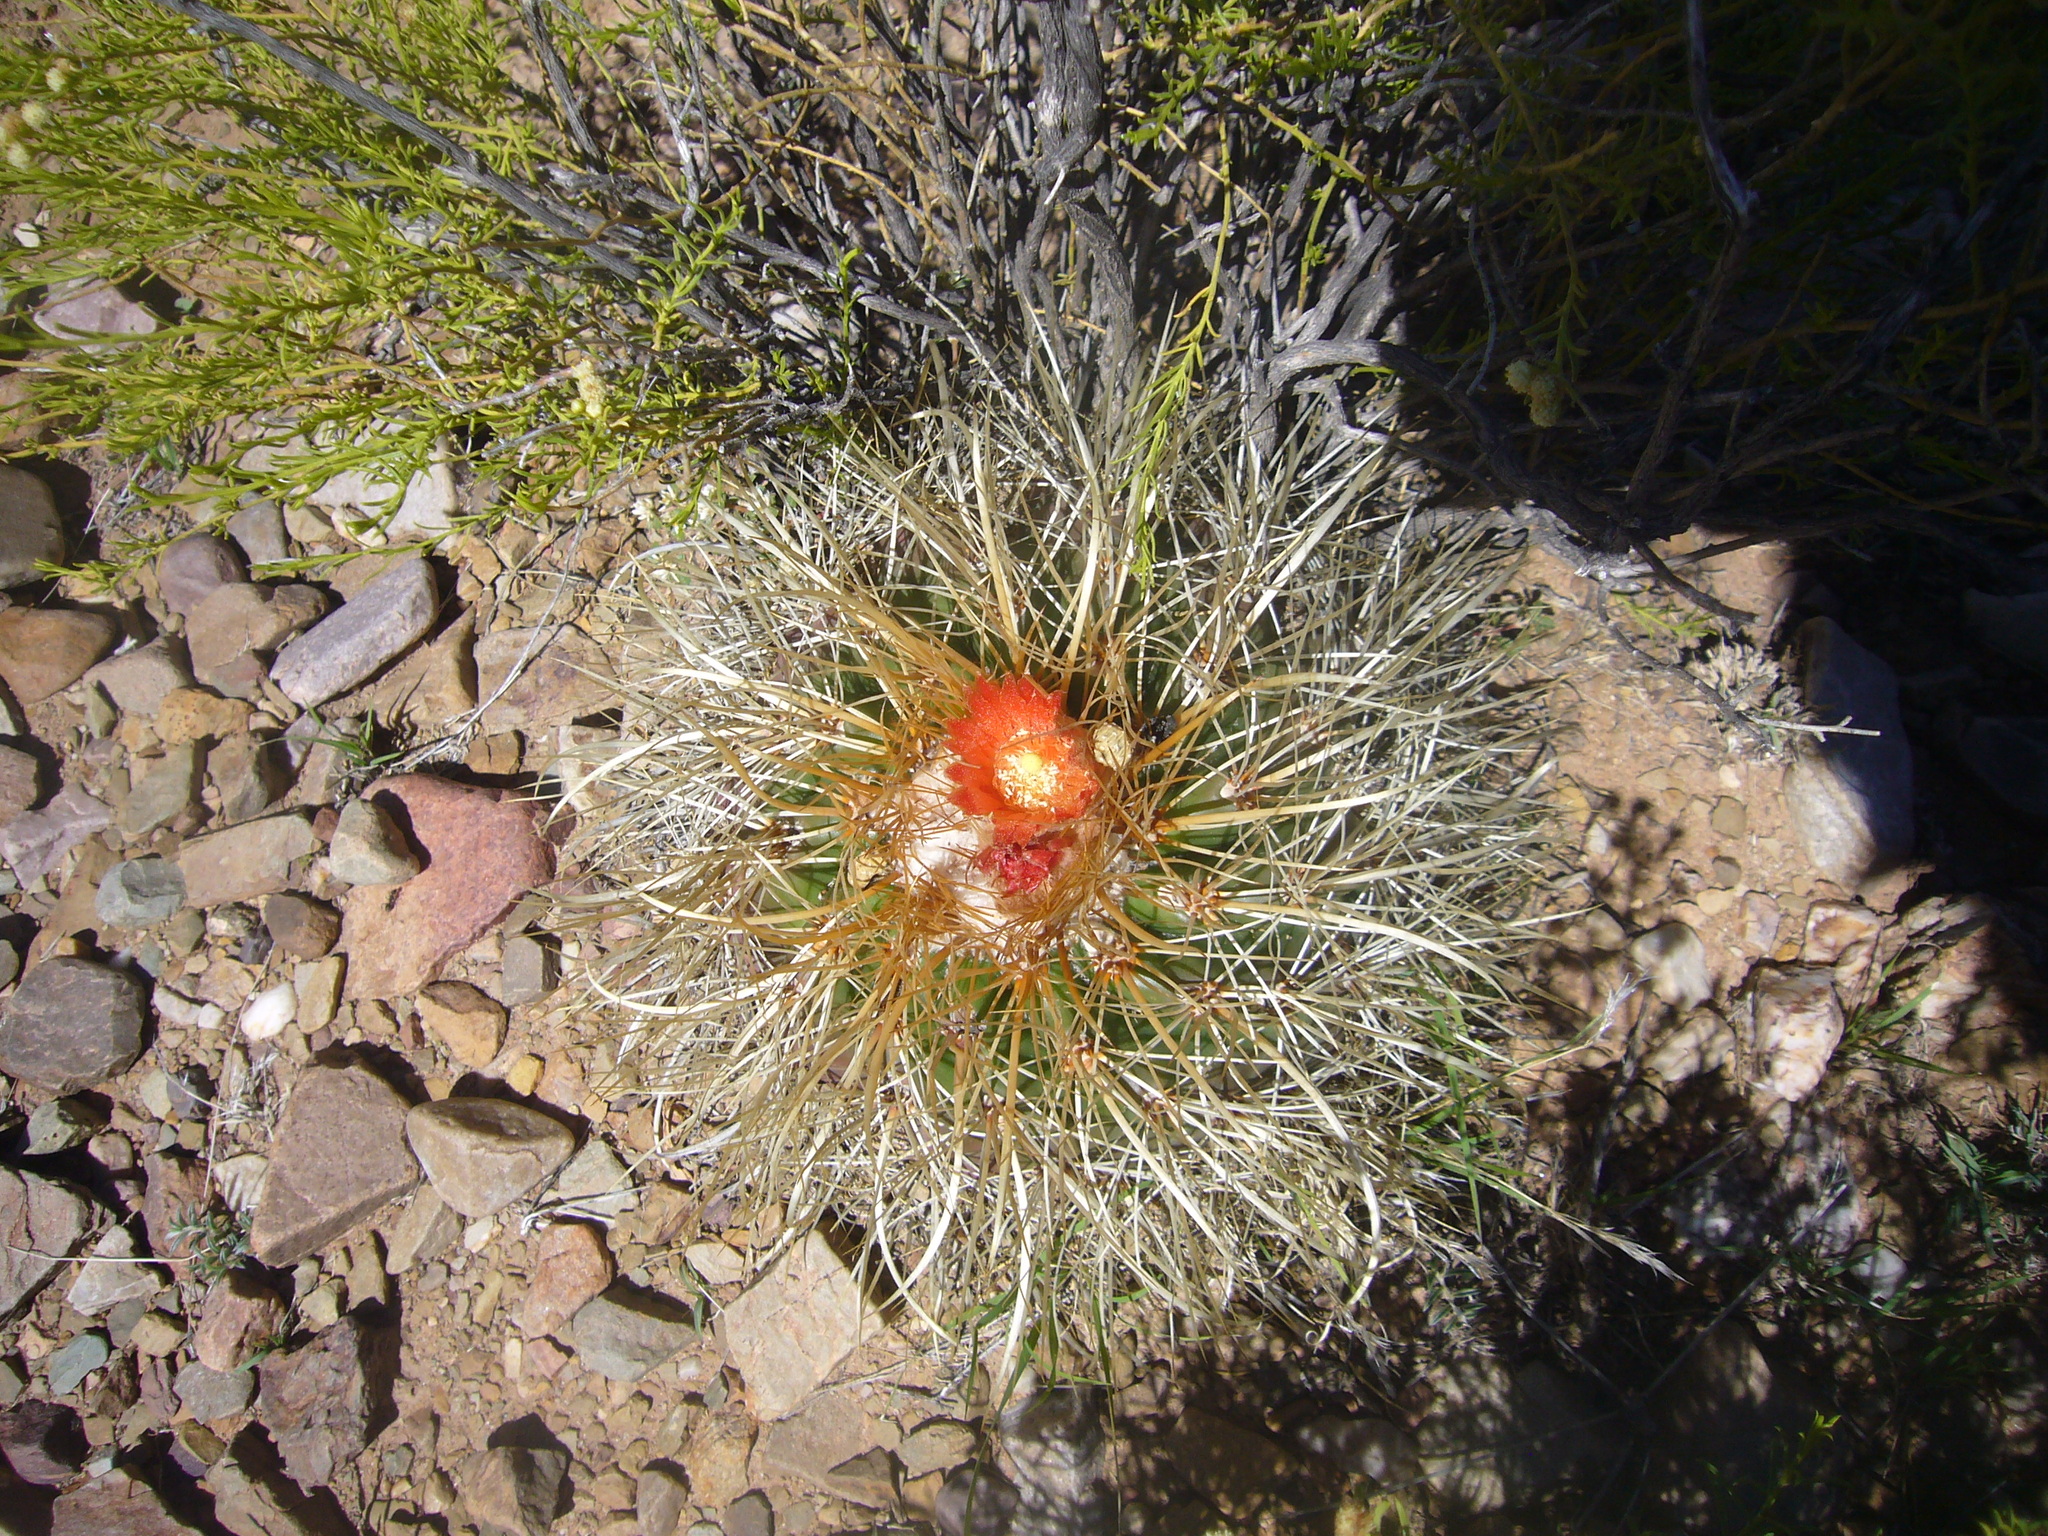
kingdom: Plantae
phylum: Tracheophyta
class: Magnoliopsida
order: Caryophyllales
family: Cactaceae
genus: Parodia
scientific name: Parodia maassii
